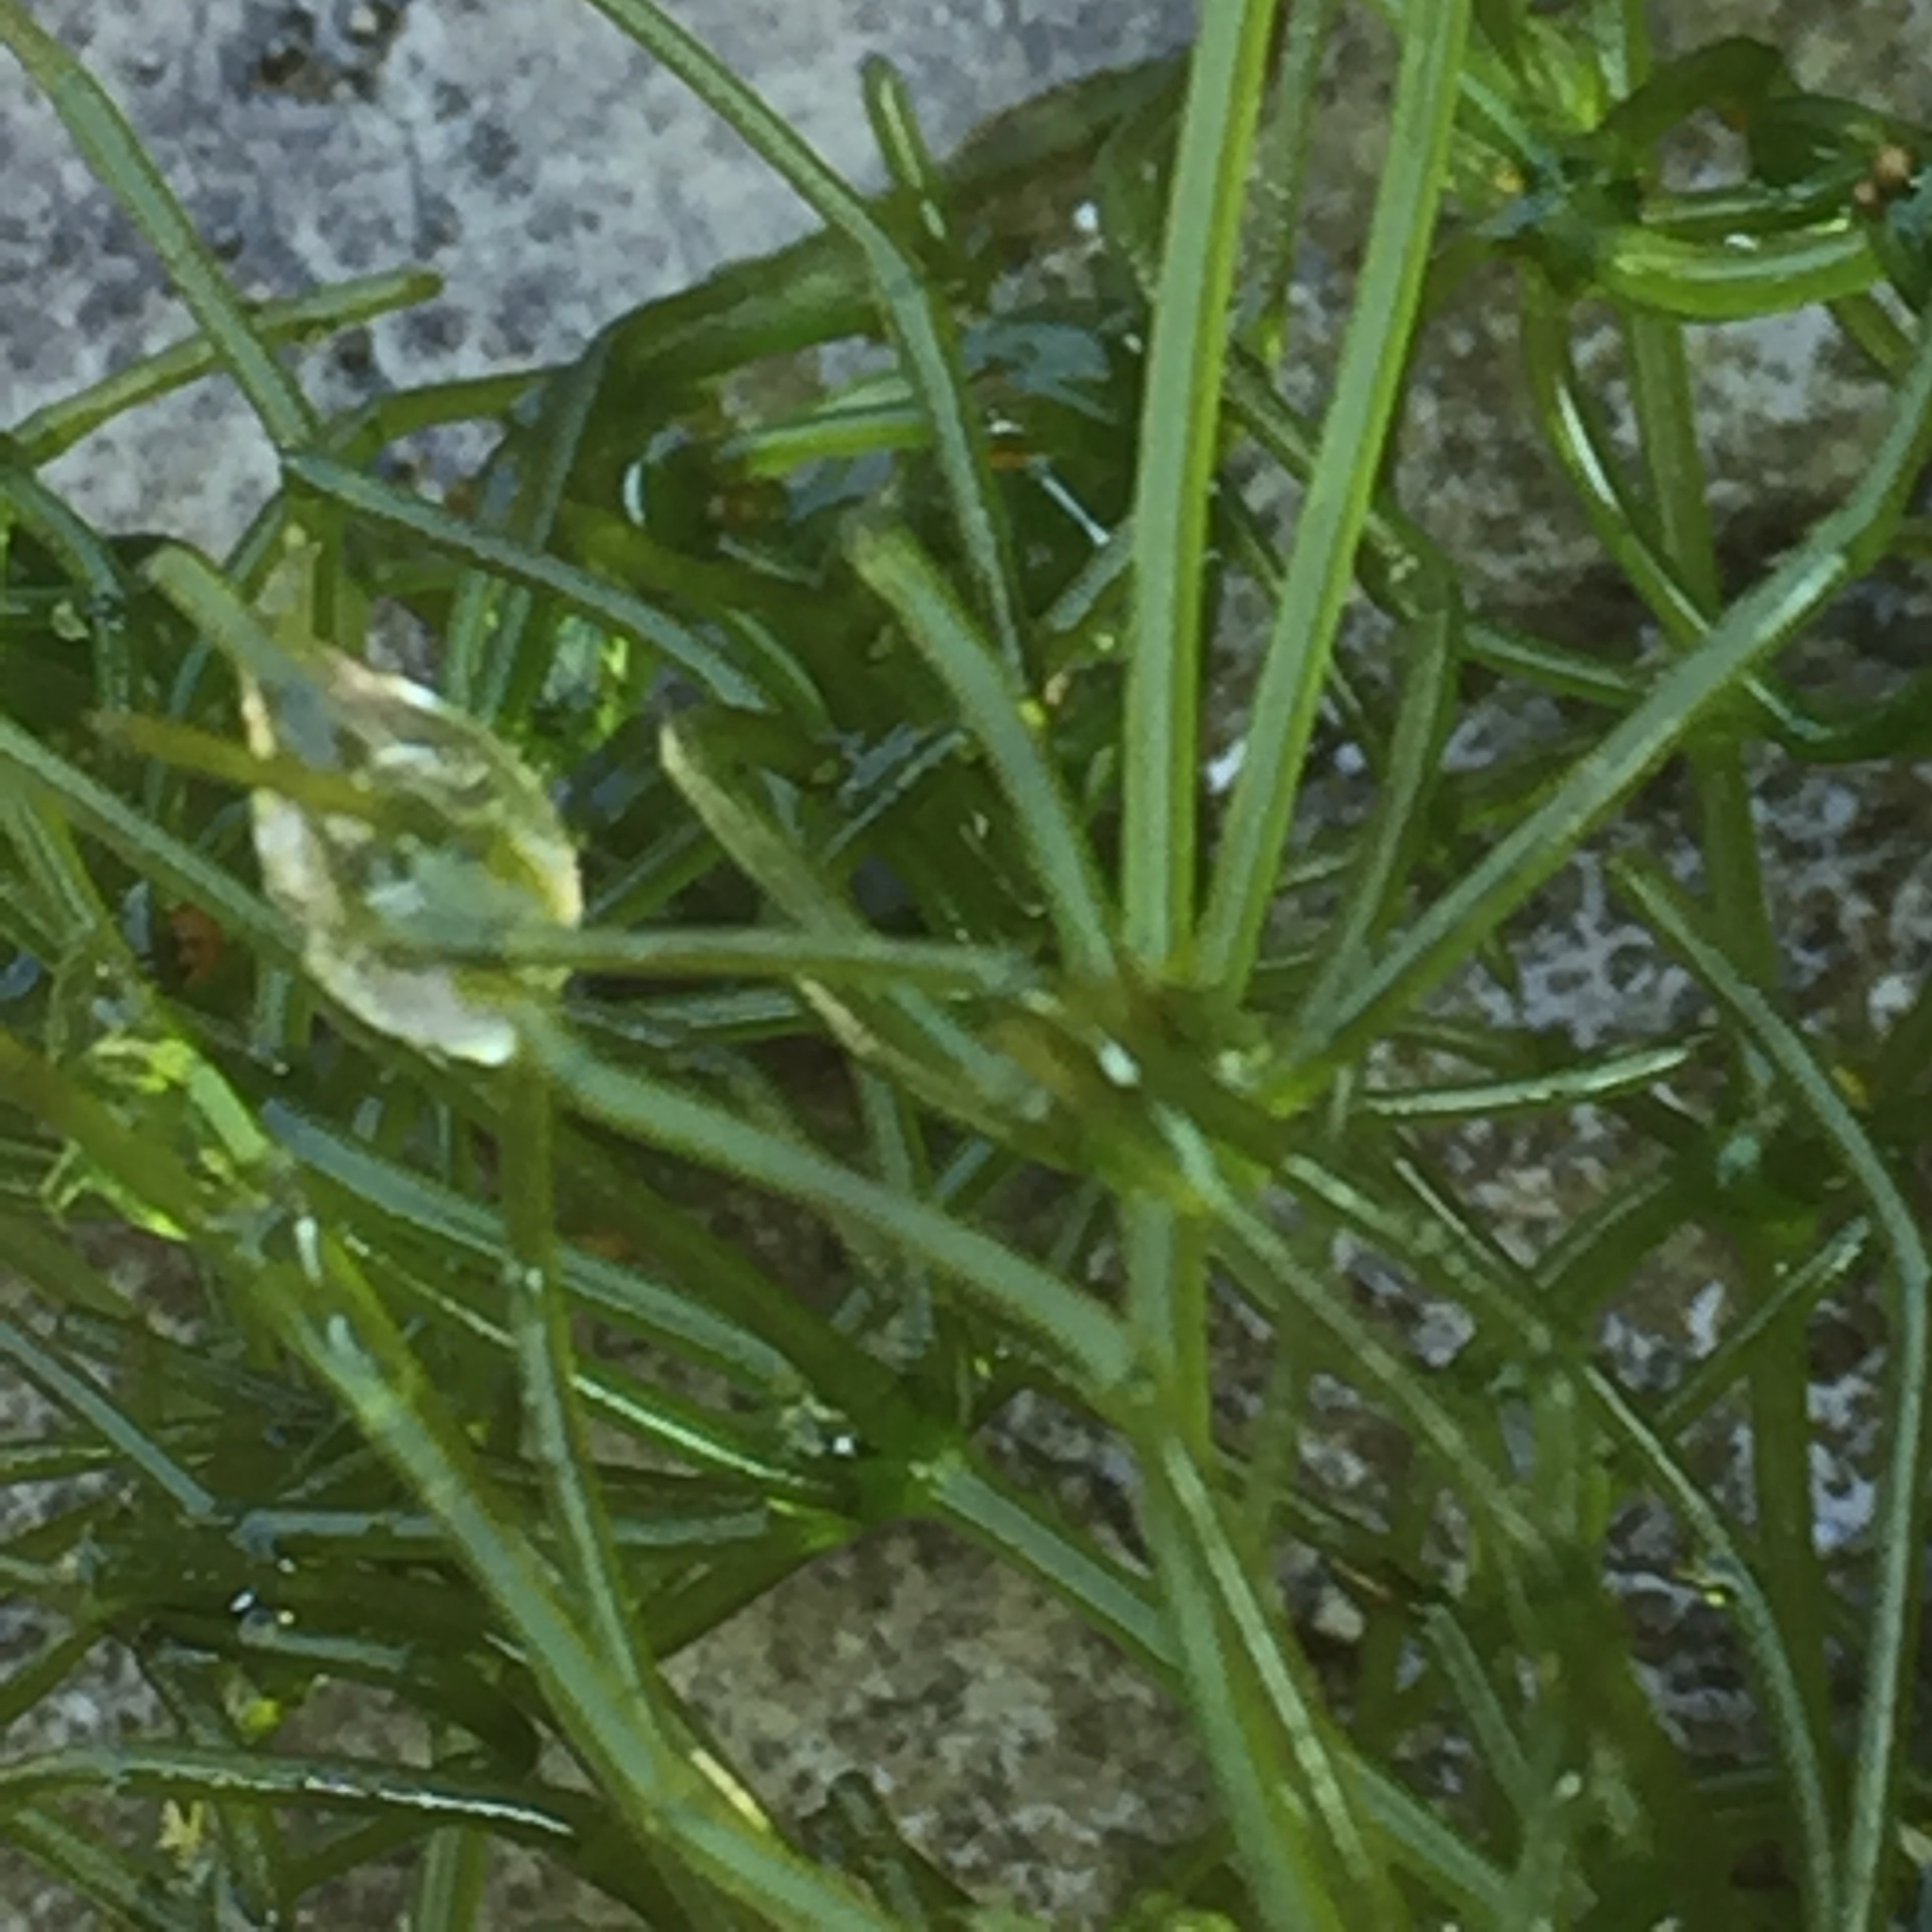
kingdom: Plantae
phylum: Charophyta
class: Charophyceae
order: Charales
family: Characeae
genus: Chara
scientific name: Chara corallina
